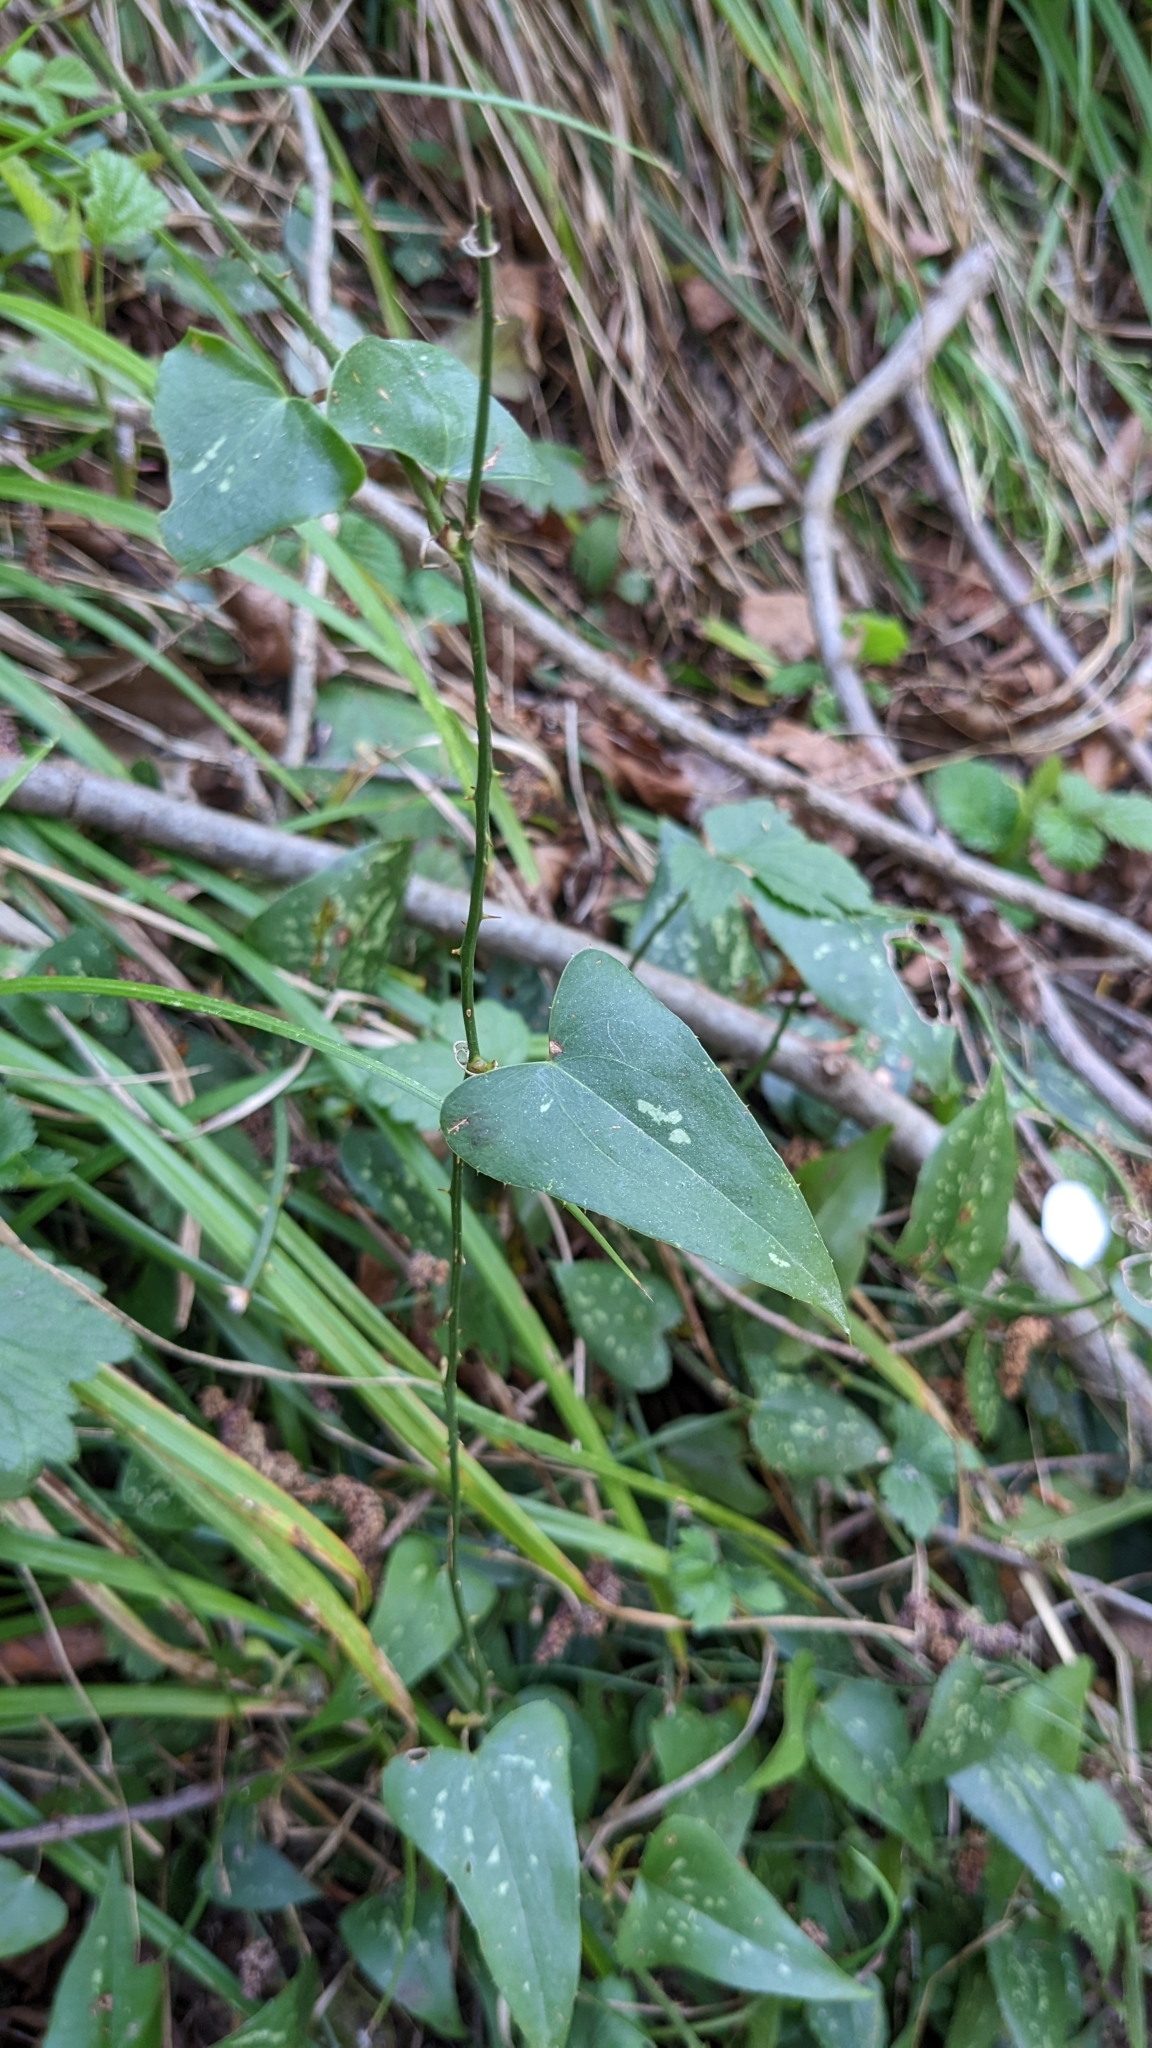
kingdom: Plantae
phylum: Tracheophyta
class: Liliopsida
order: Liliales
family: Smilacaceae
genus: Smilax
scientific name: Smilax aspera
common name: Common smilax
